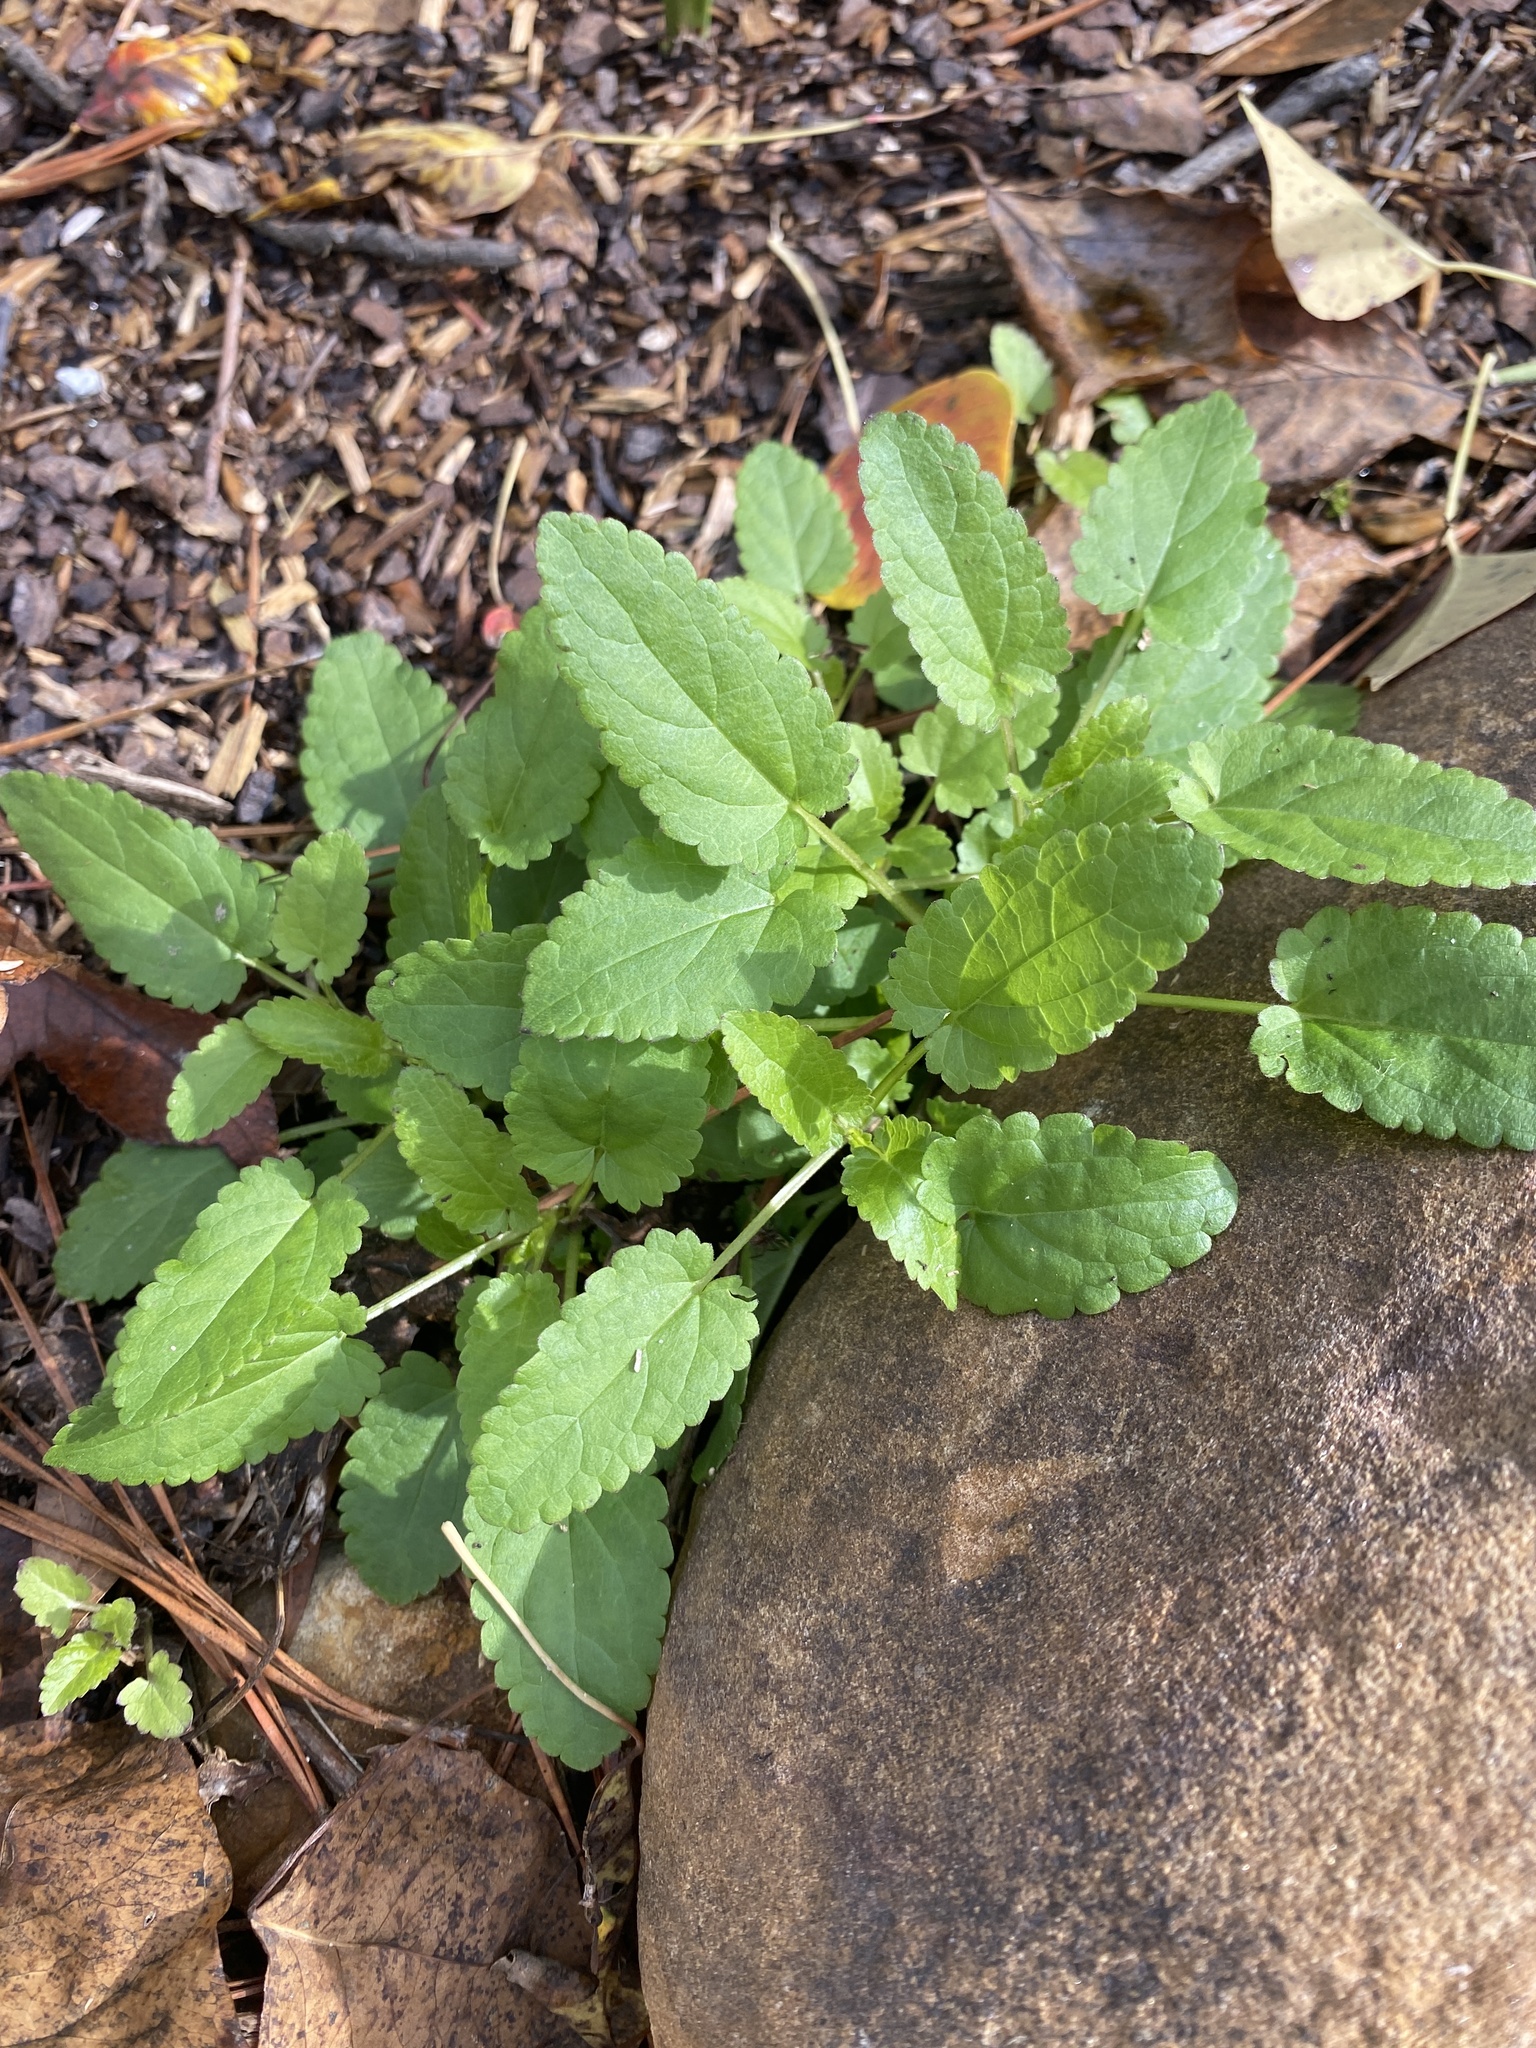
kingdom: Plantae
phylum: Tracheophyta
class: Magnoliopsida
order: Lamiales
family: Lamiaceae
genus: Stachys
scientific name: Stachys floridana
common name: Florida betony
